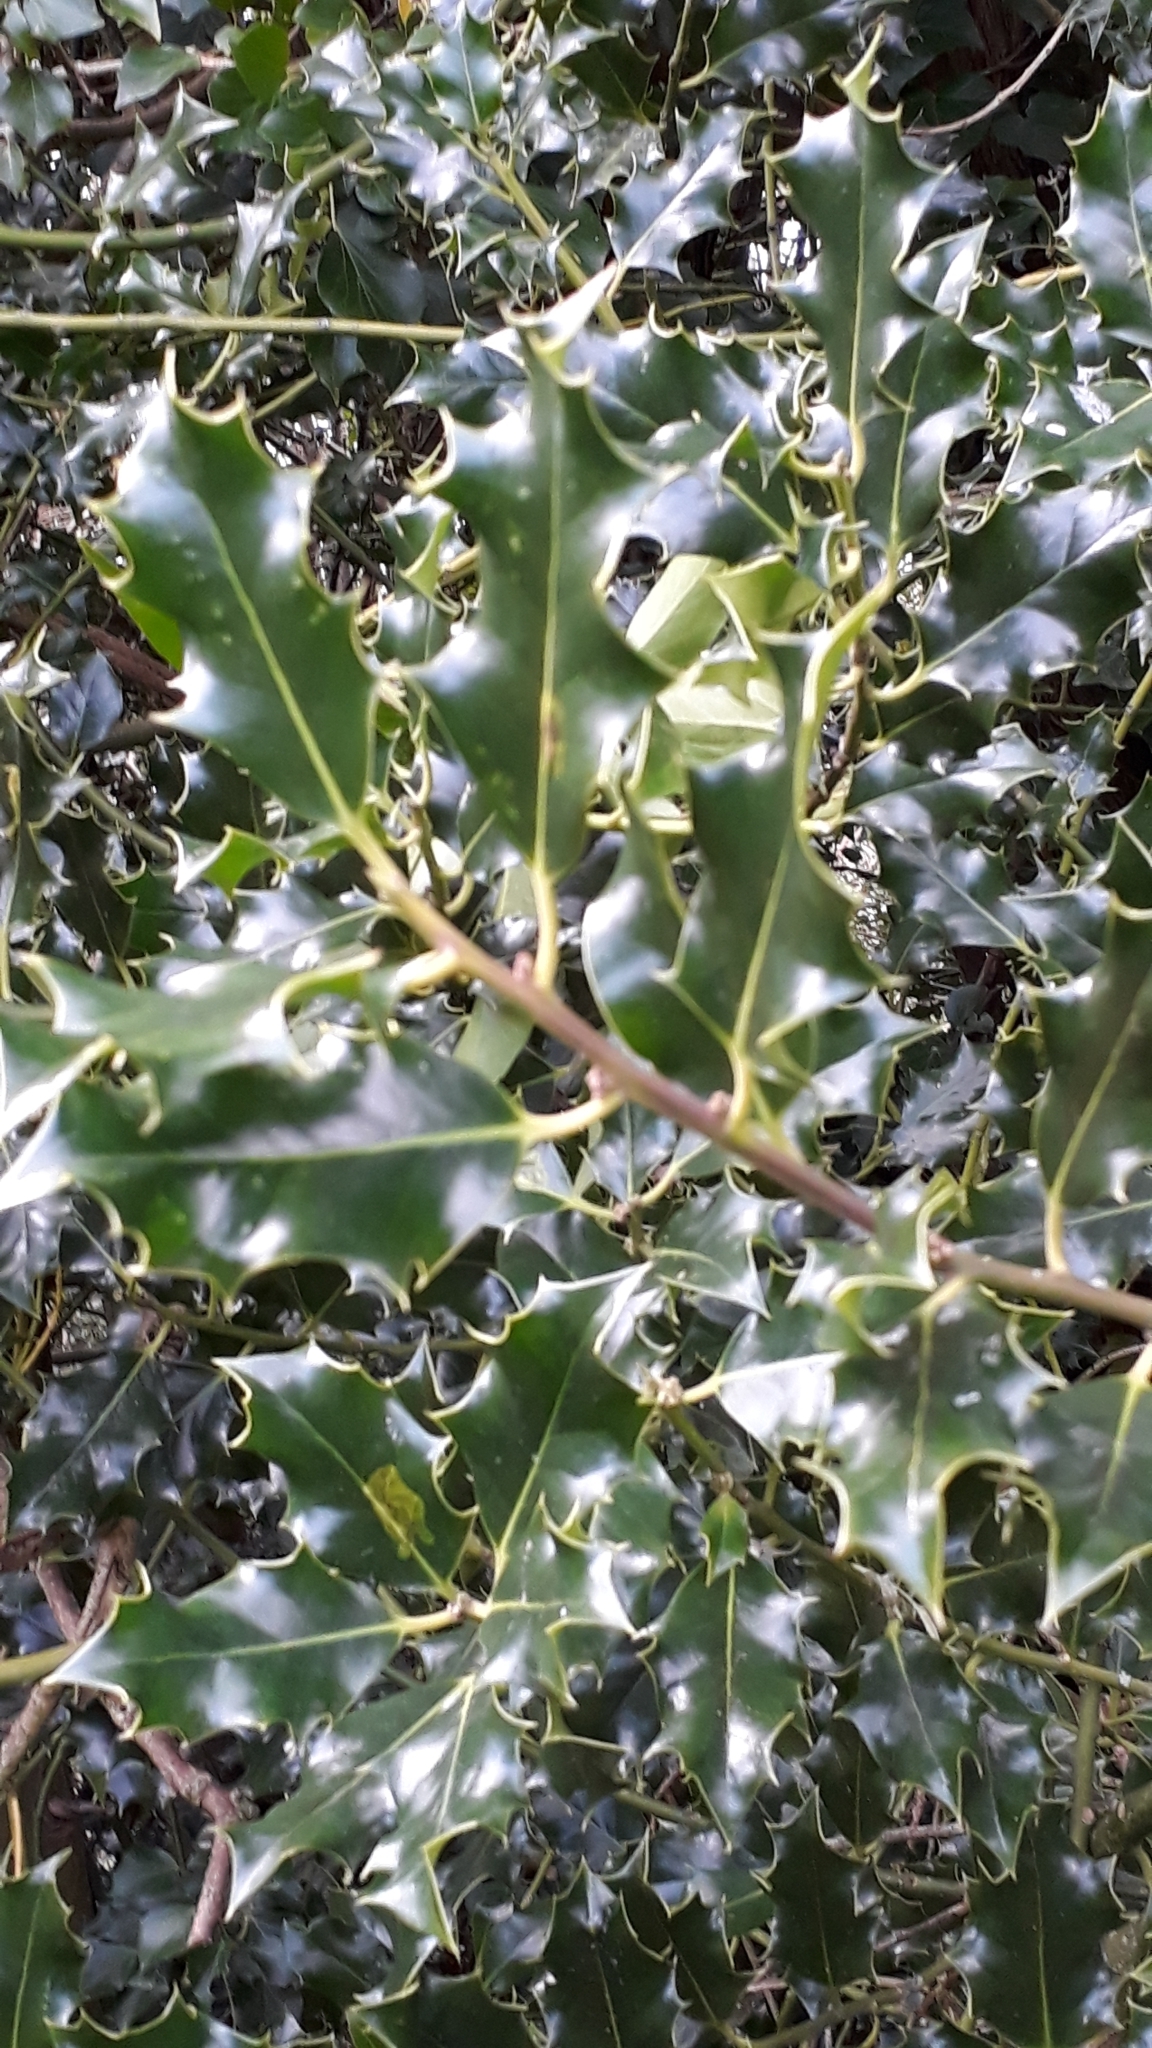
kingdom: Plantae
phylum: Tracheophyta
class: Magnoliopsida
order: Aquifoliales
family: Aquifoliaceae
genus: Ilex
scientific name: Ilex aquifolium
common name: English holly
